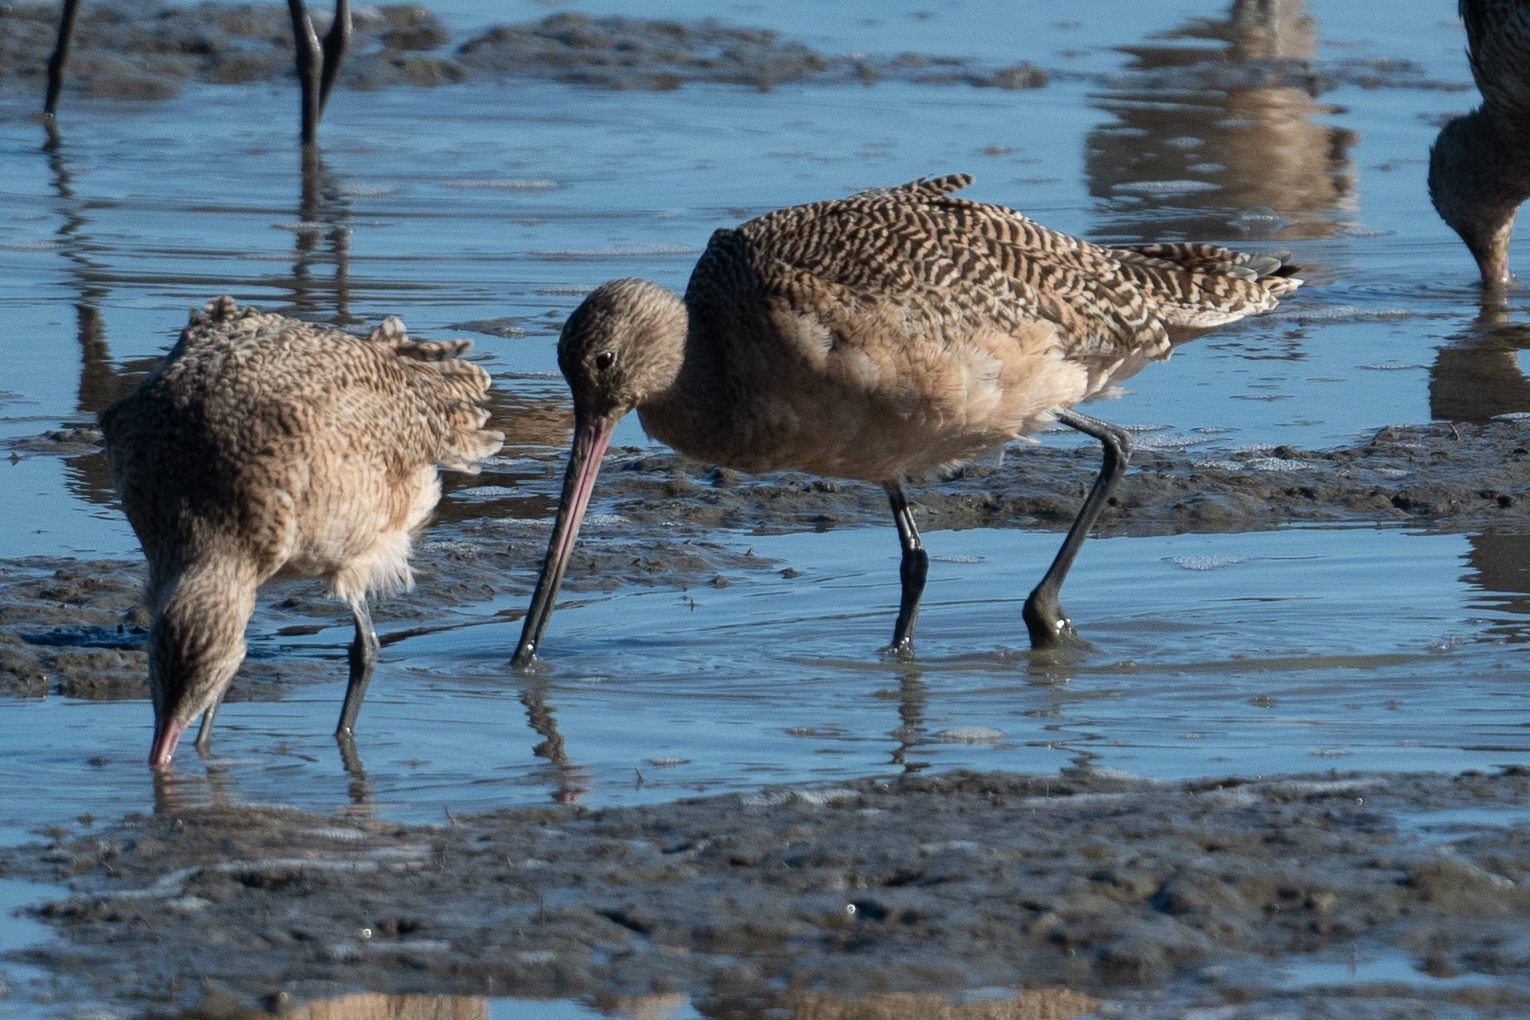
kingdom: Animalia
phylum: Chordata
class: Aves
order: Charadriiformes
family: Scolopacidae
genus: Limosa
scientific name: Limosa fedoa
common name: Marbled godwit
